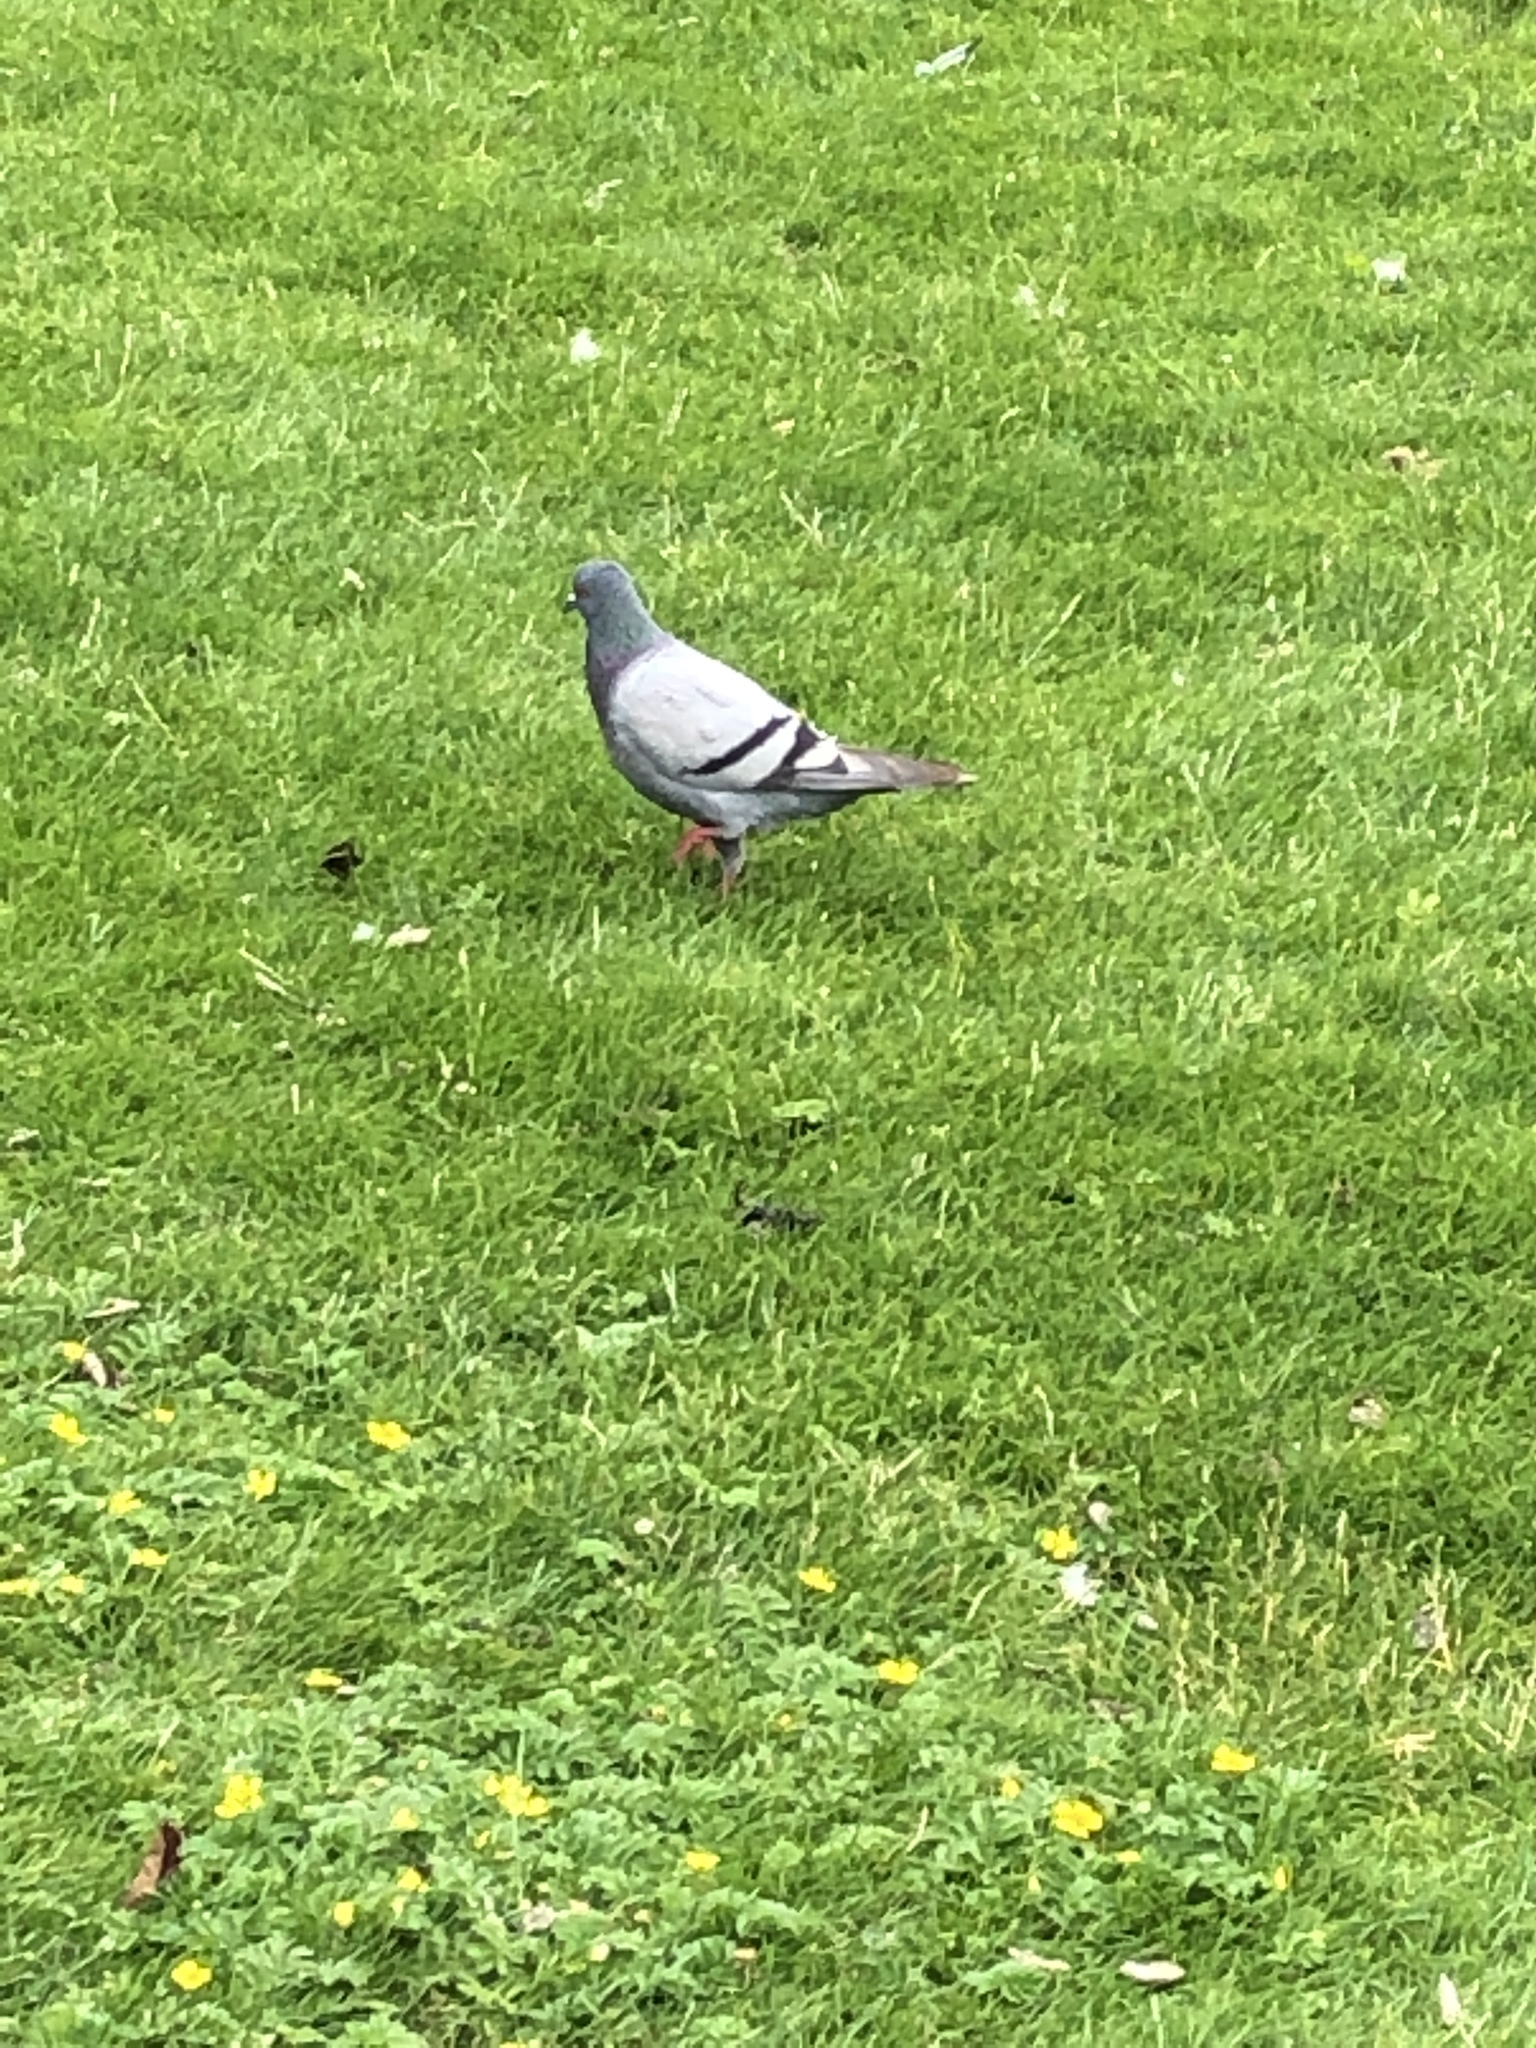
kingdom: Animalia
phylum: Chordata
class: Aves
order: Columbiformes
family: Columbidae
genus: Columba
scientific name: Columba livia
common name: Rock pigeon
